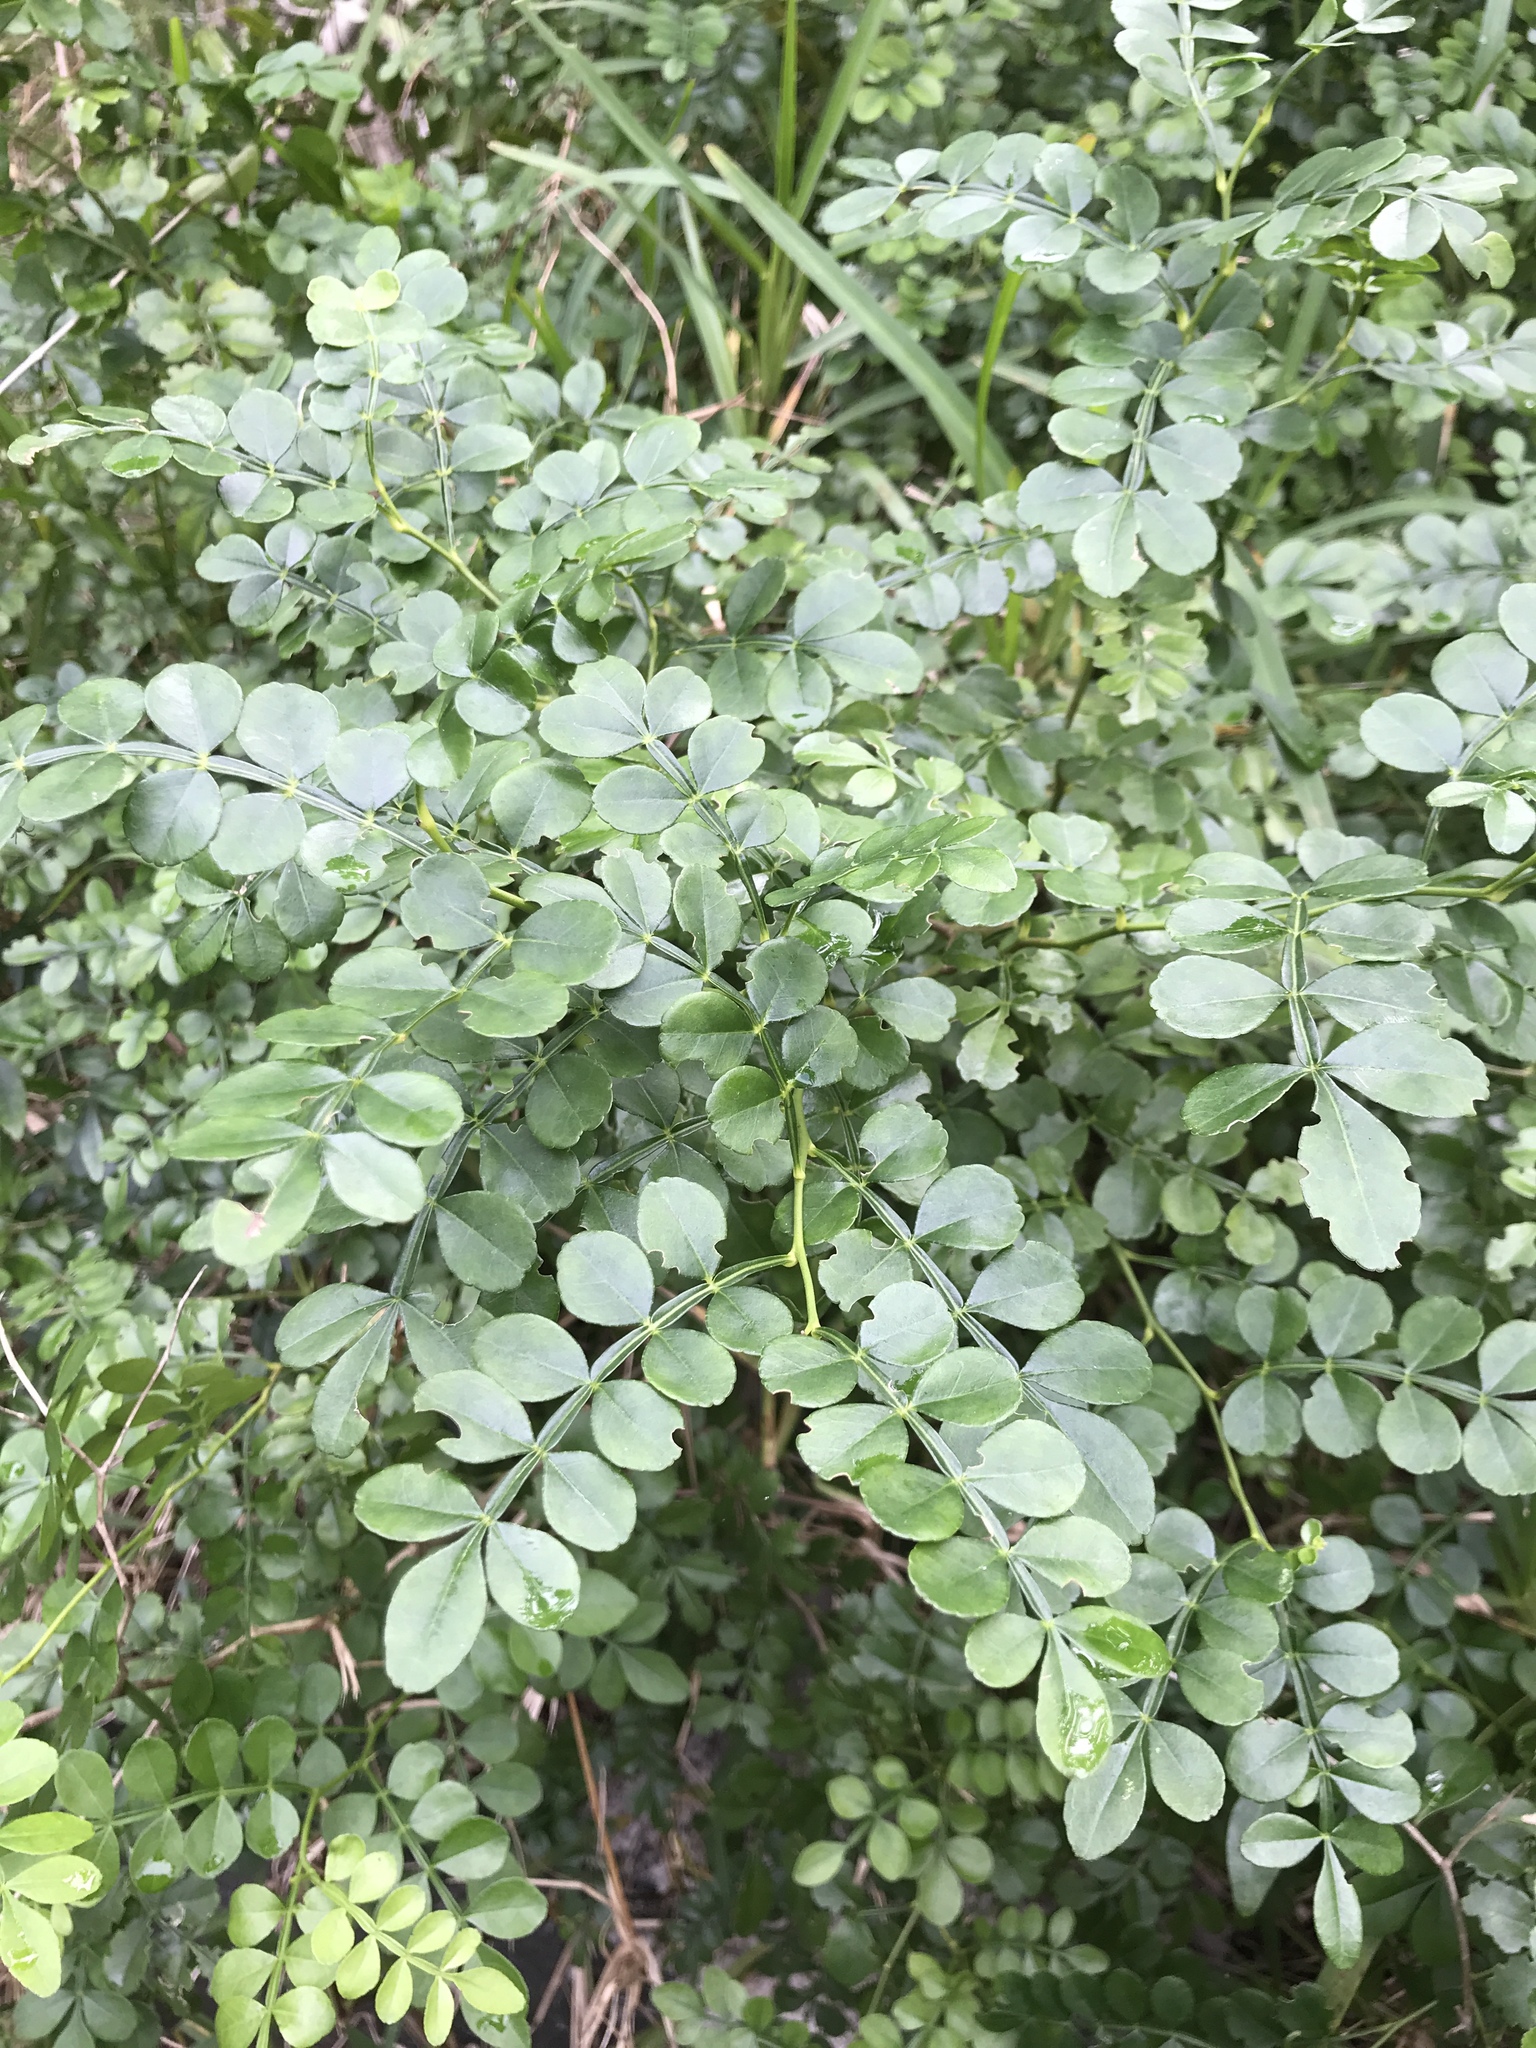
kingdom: Plantae
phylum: Tracheophyta
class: Magnoliopsida
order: Sapindales
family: Rutaceae
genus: Zanthoxylum
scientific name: Zanthoxylum fagara
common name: Lime prickly-ash
